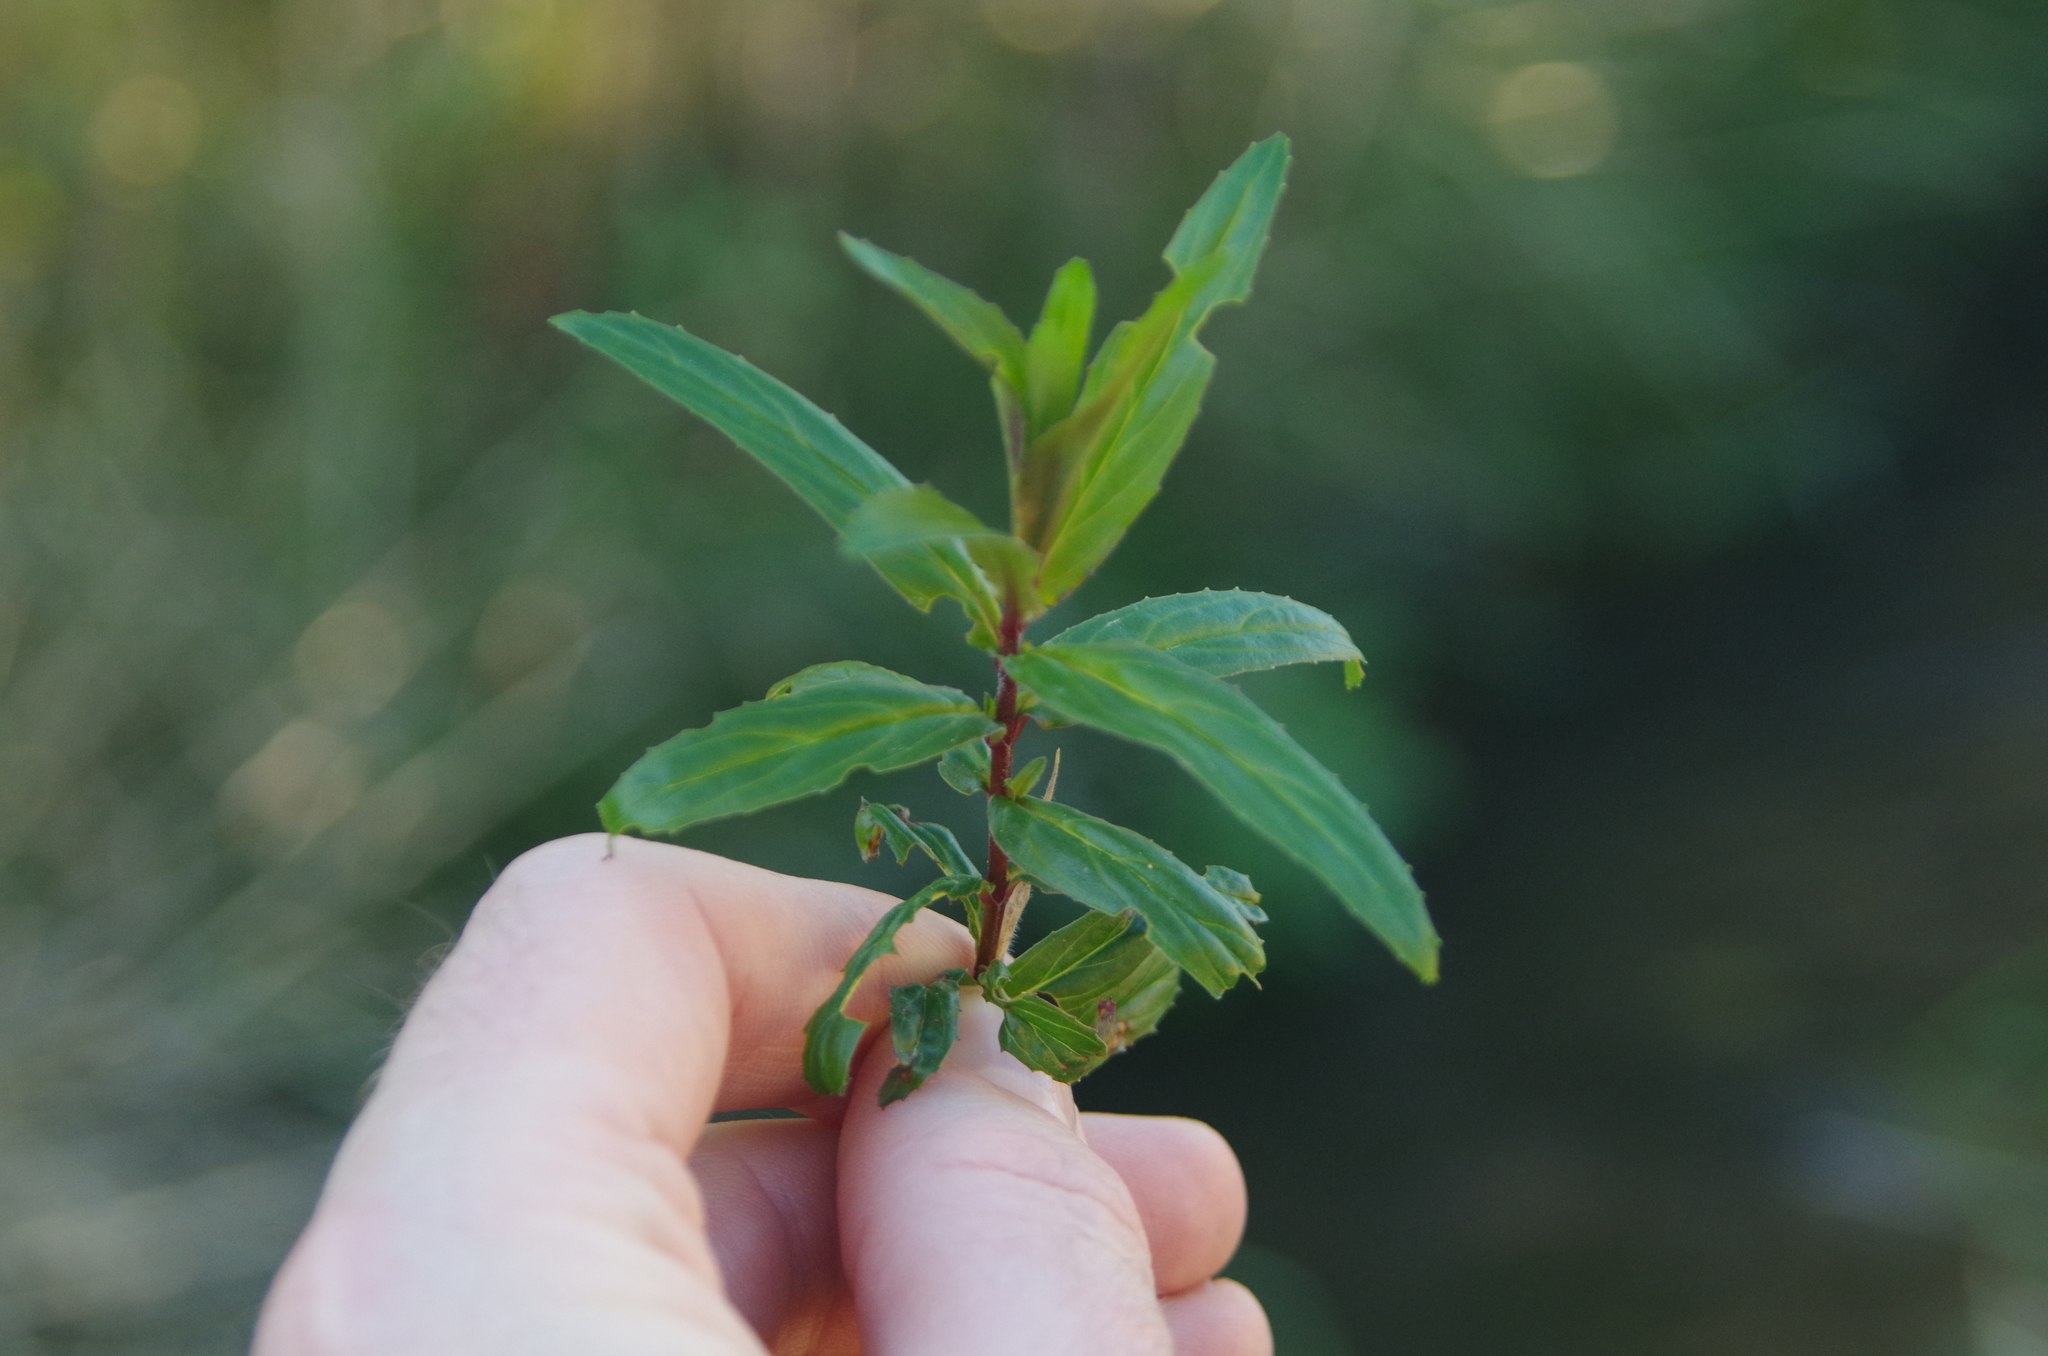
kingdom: Plantae
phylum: Tracheophyta
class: Magnoliopsida
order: Myrtales
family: Onagraceae
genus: Epilobium
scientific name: Epilobium ciliatum
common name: American willowherb
